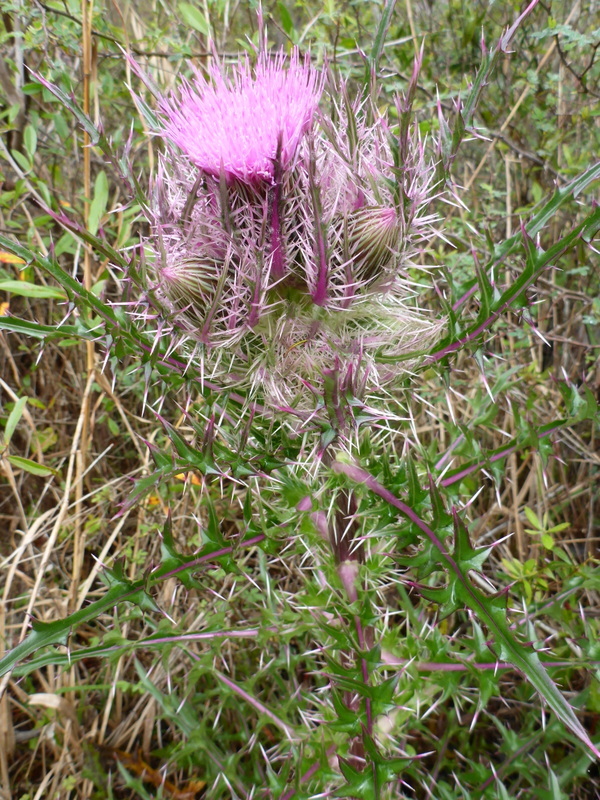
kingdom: Plantae
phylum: Tracheophyta
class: Magnoliopsida
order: Asterales
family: Asteraceae
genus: Cirsium
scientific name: Cirsium horridulum
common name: Bristly thistle
